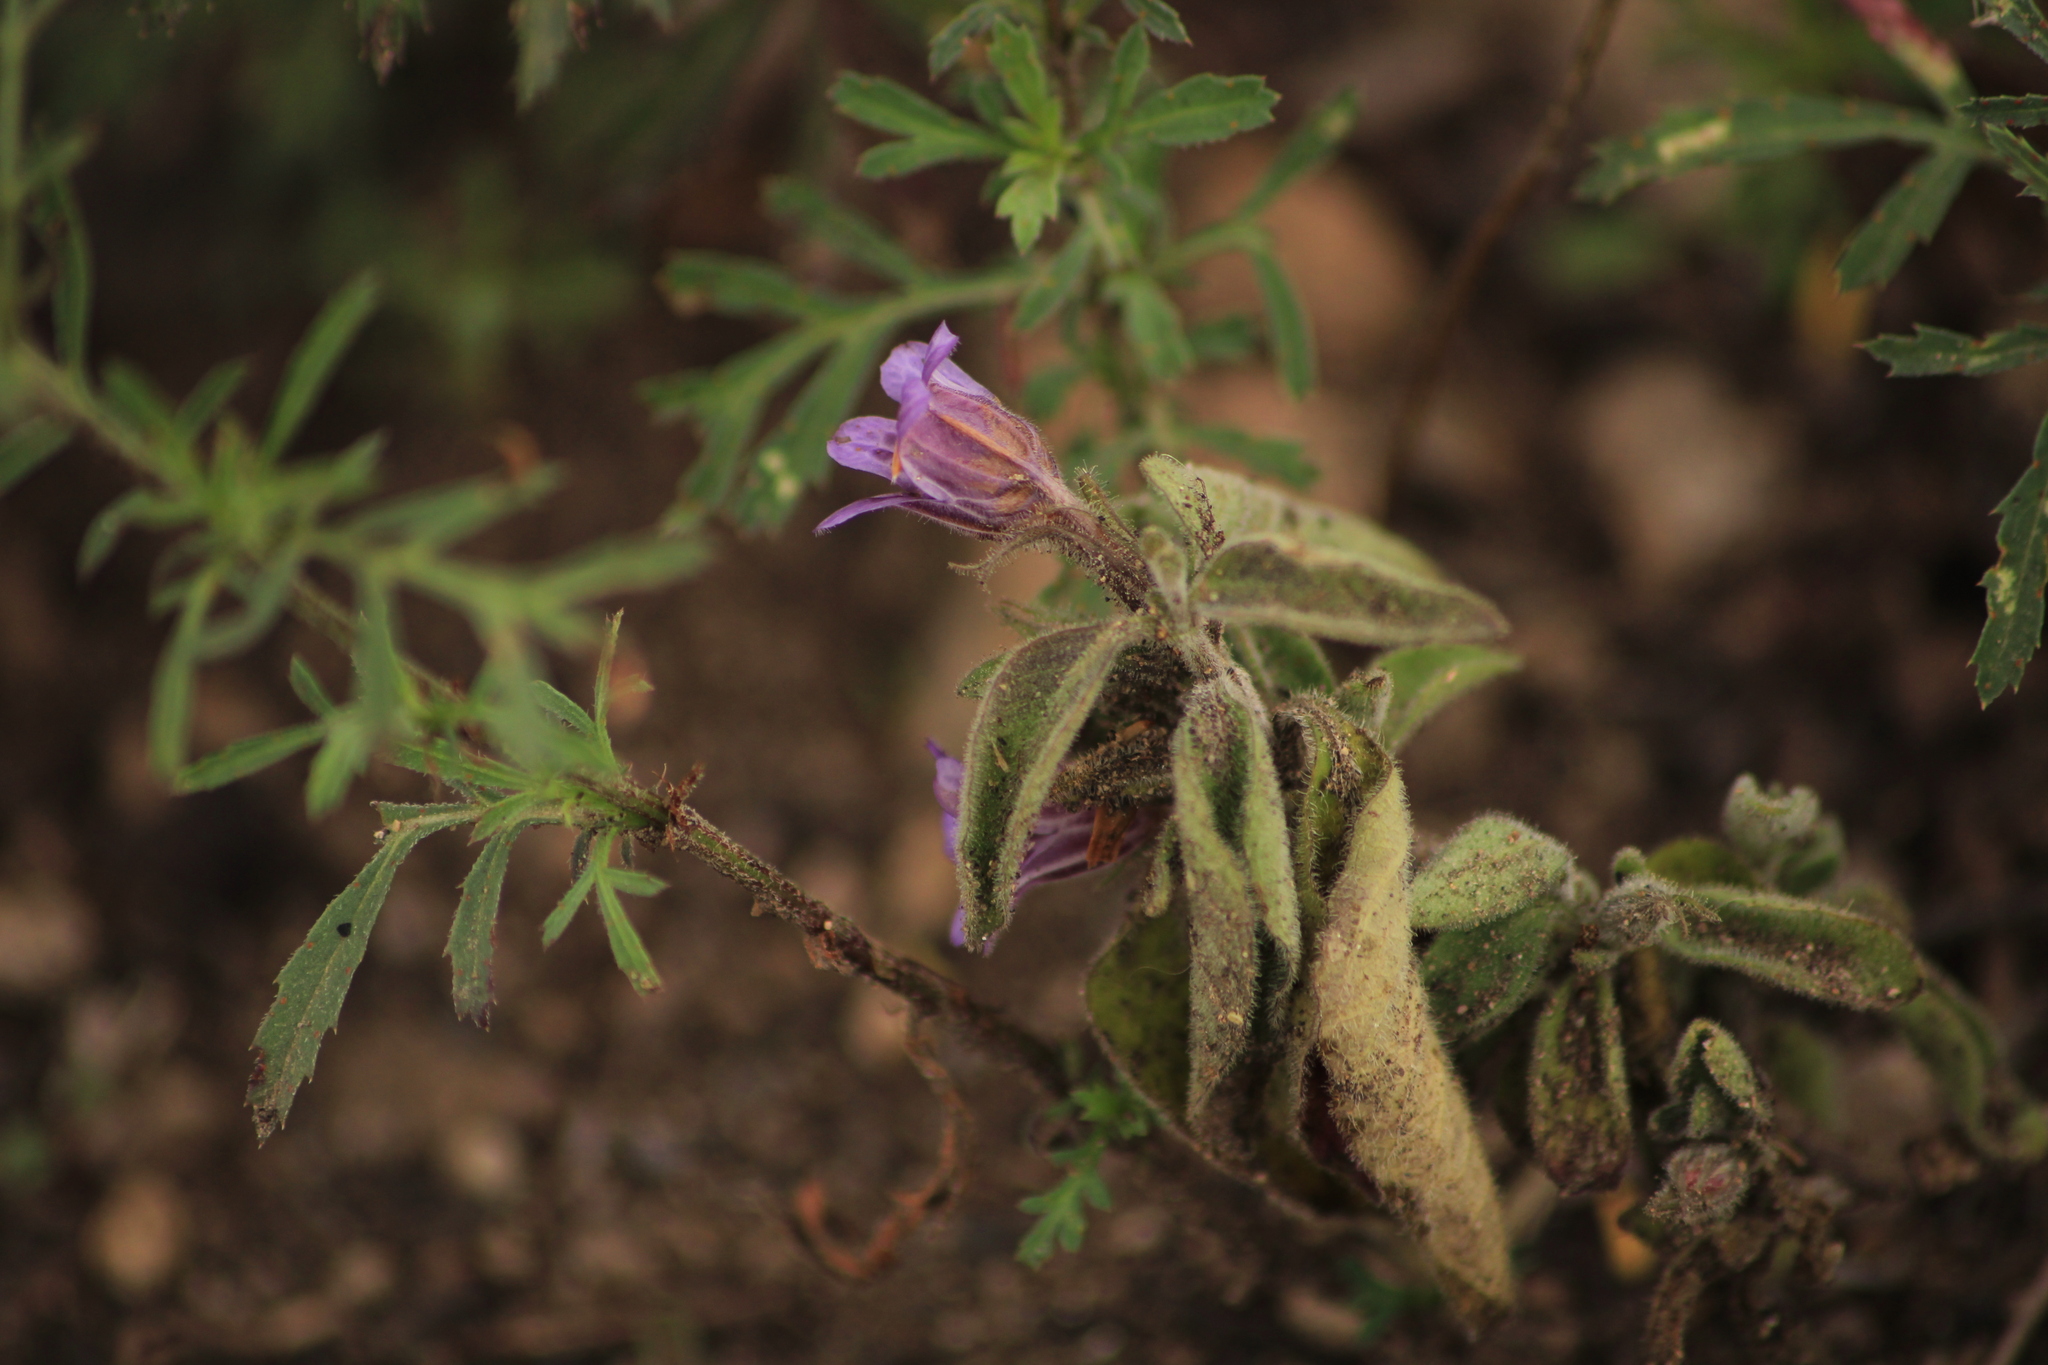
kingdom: Plantae
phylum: Tracheophyta
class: Magnoliopsida
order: Lamiales
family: Acanthaceae
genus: Dyschoriste
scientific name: Dyschoriste hirsutissima
